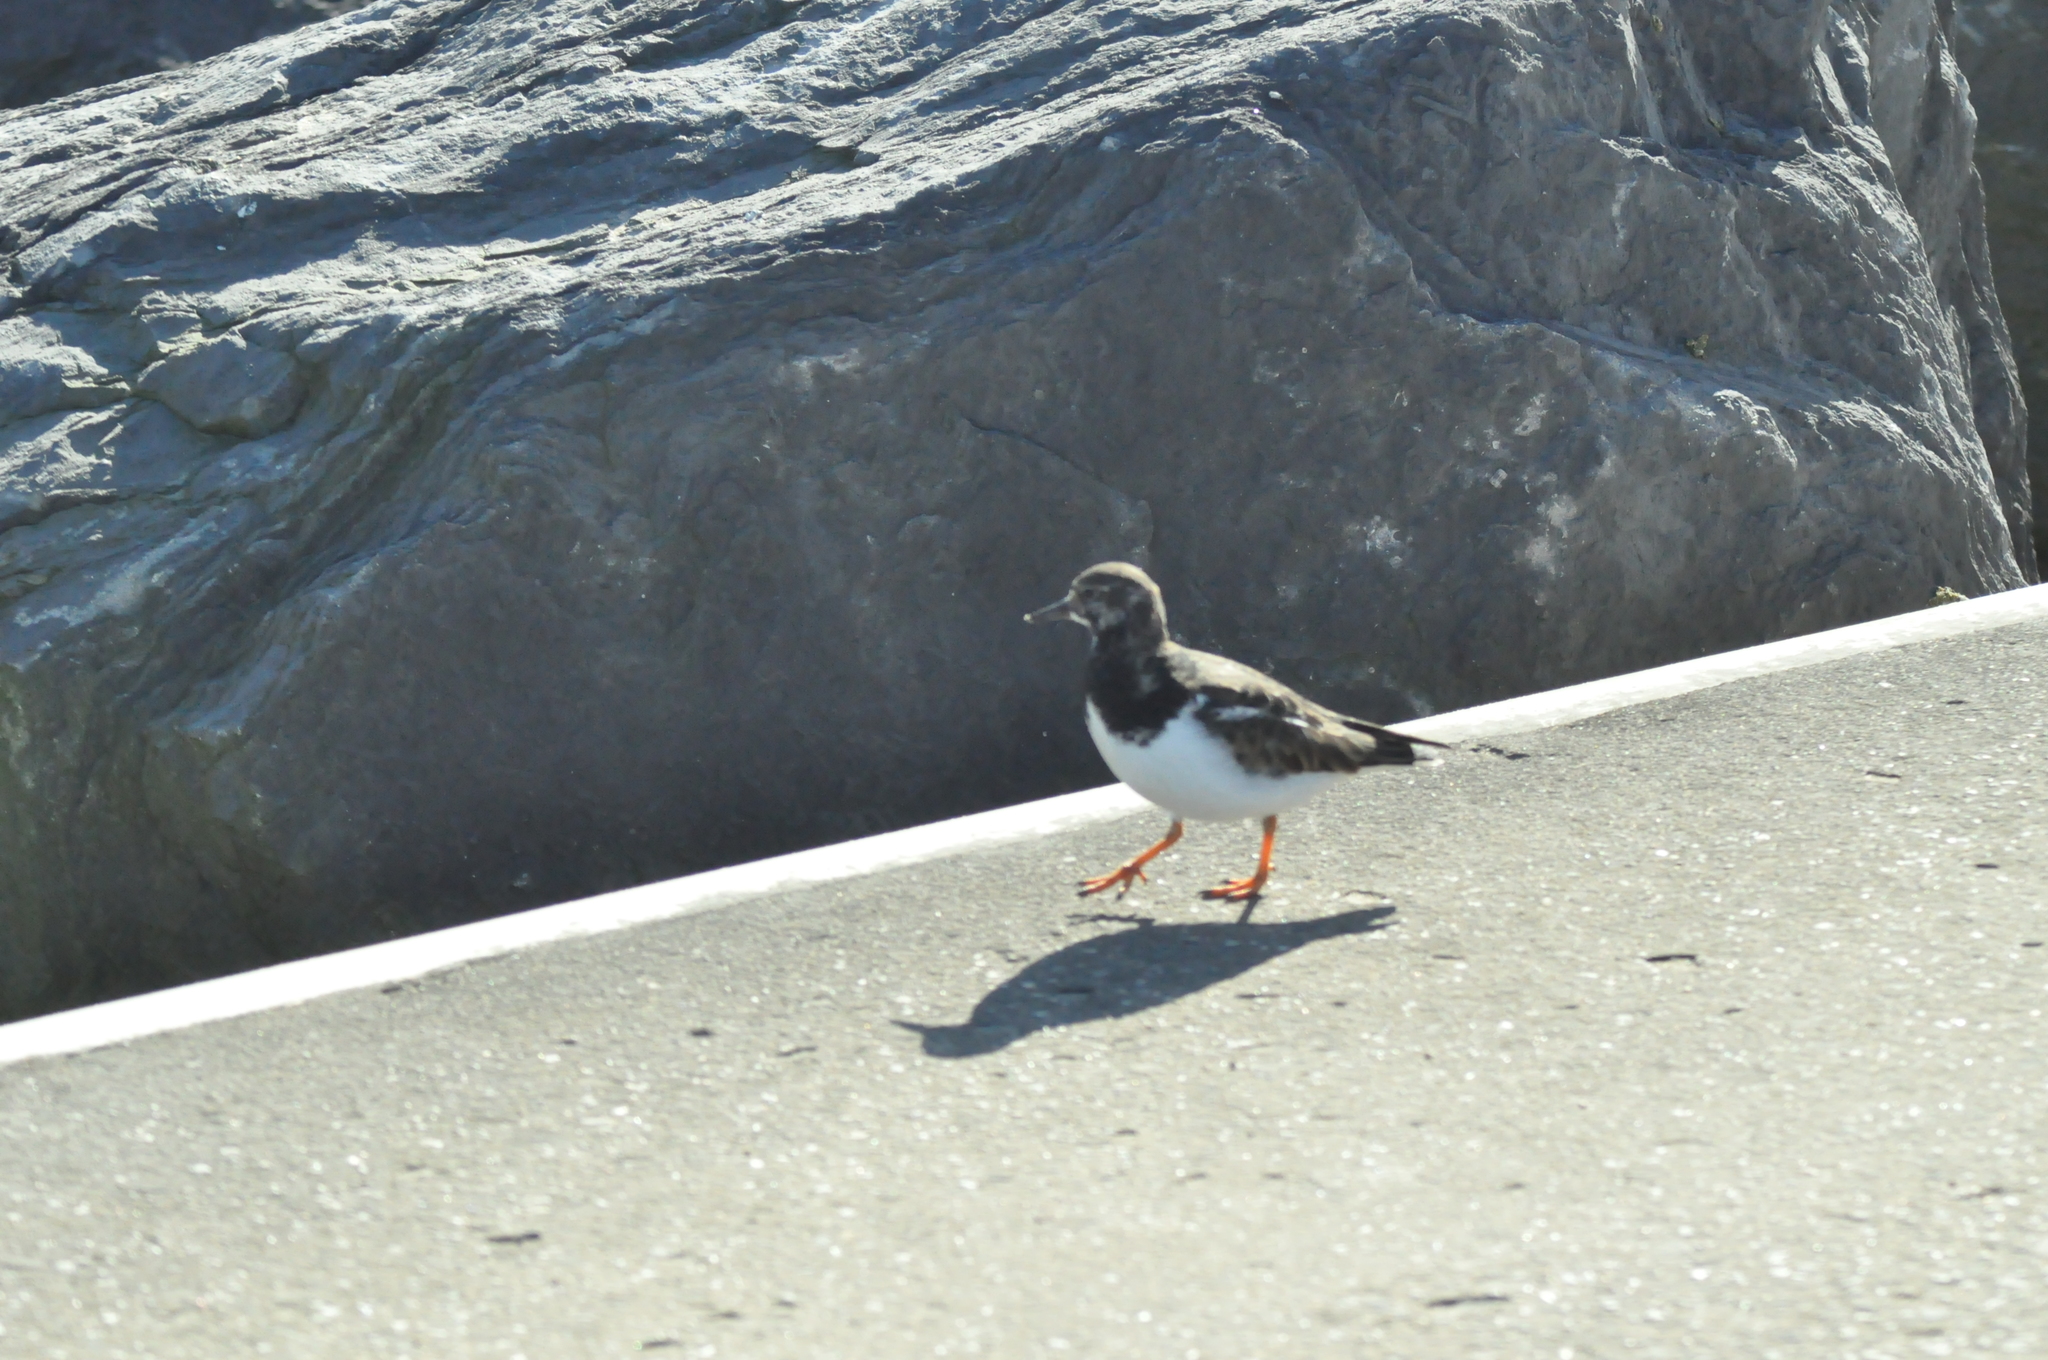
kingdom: Animalia
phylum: Chordata
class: Aves
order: Charadriiformes
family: Scolopacidae
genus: Arenaria
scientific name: Arenaria interpres
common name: Ruddy turnstone
